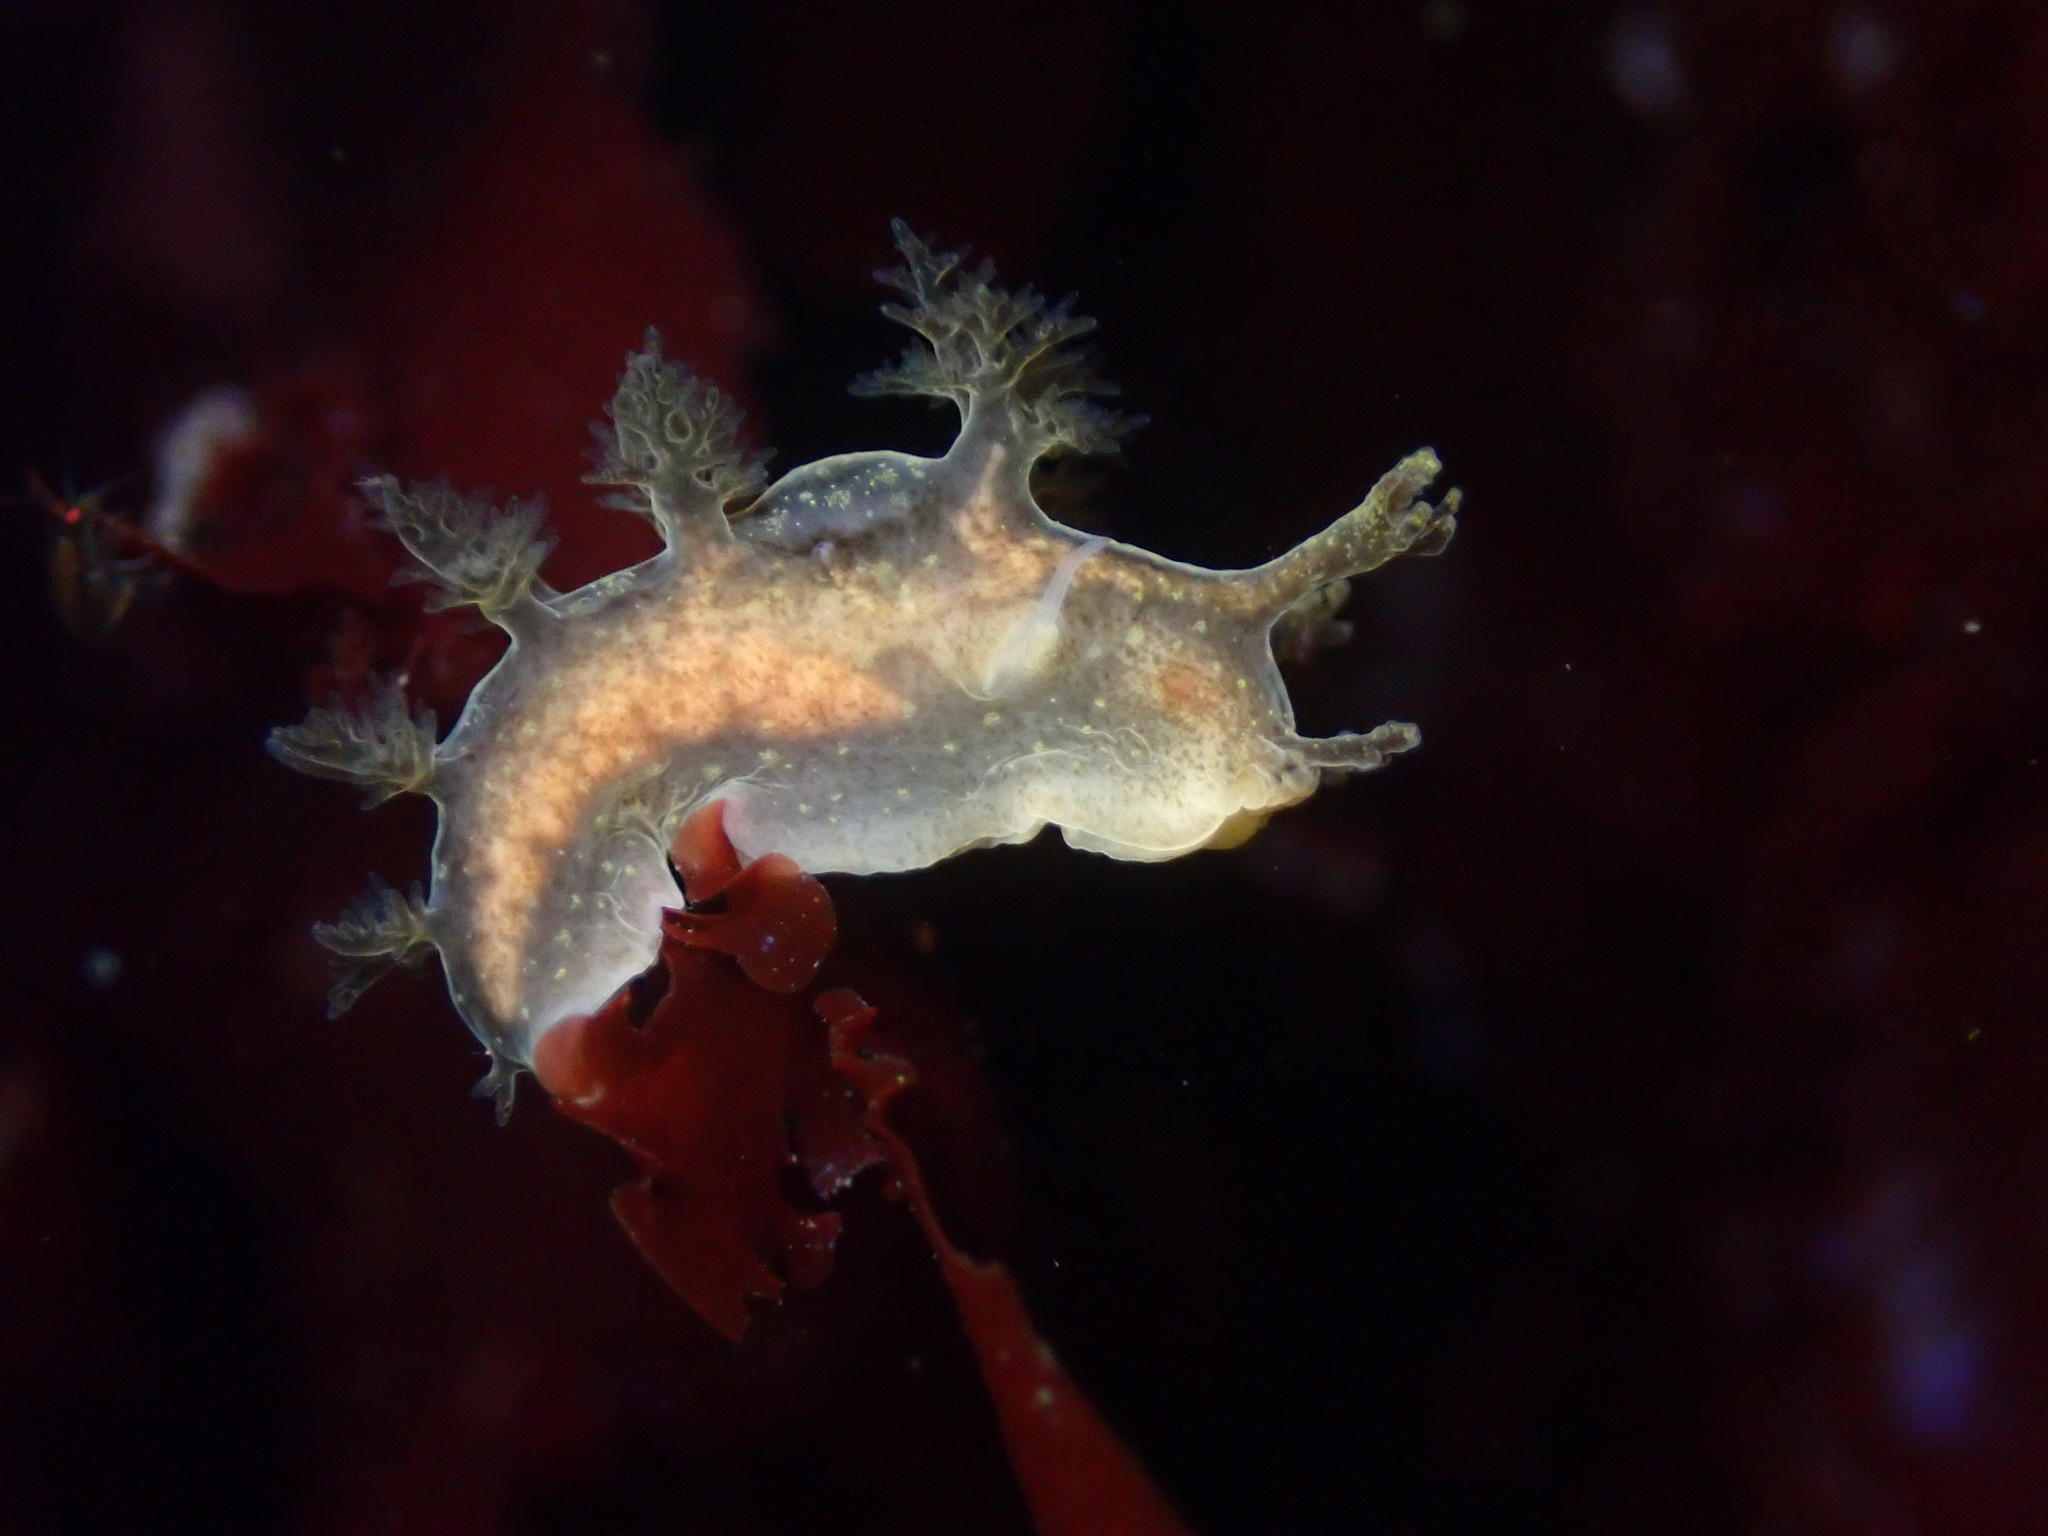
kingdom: Animalia
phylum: Mollusca
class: Gastropoda
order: Nudibranchia
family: Dendronotidae
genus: Dendronotus
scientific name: Dendronotus subramosus
